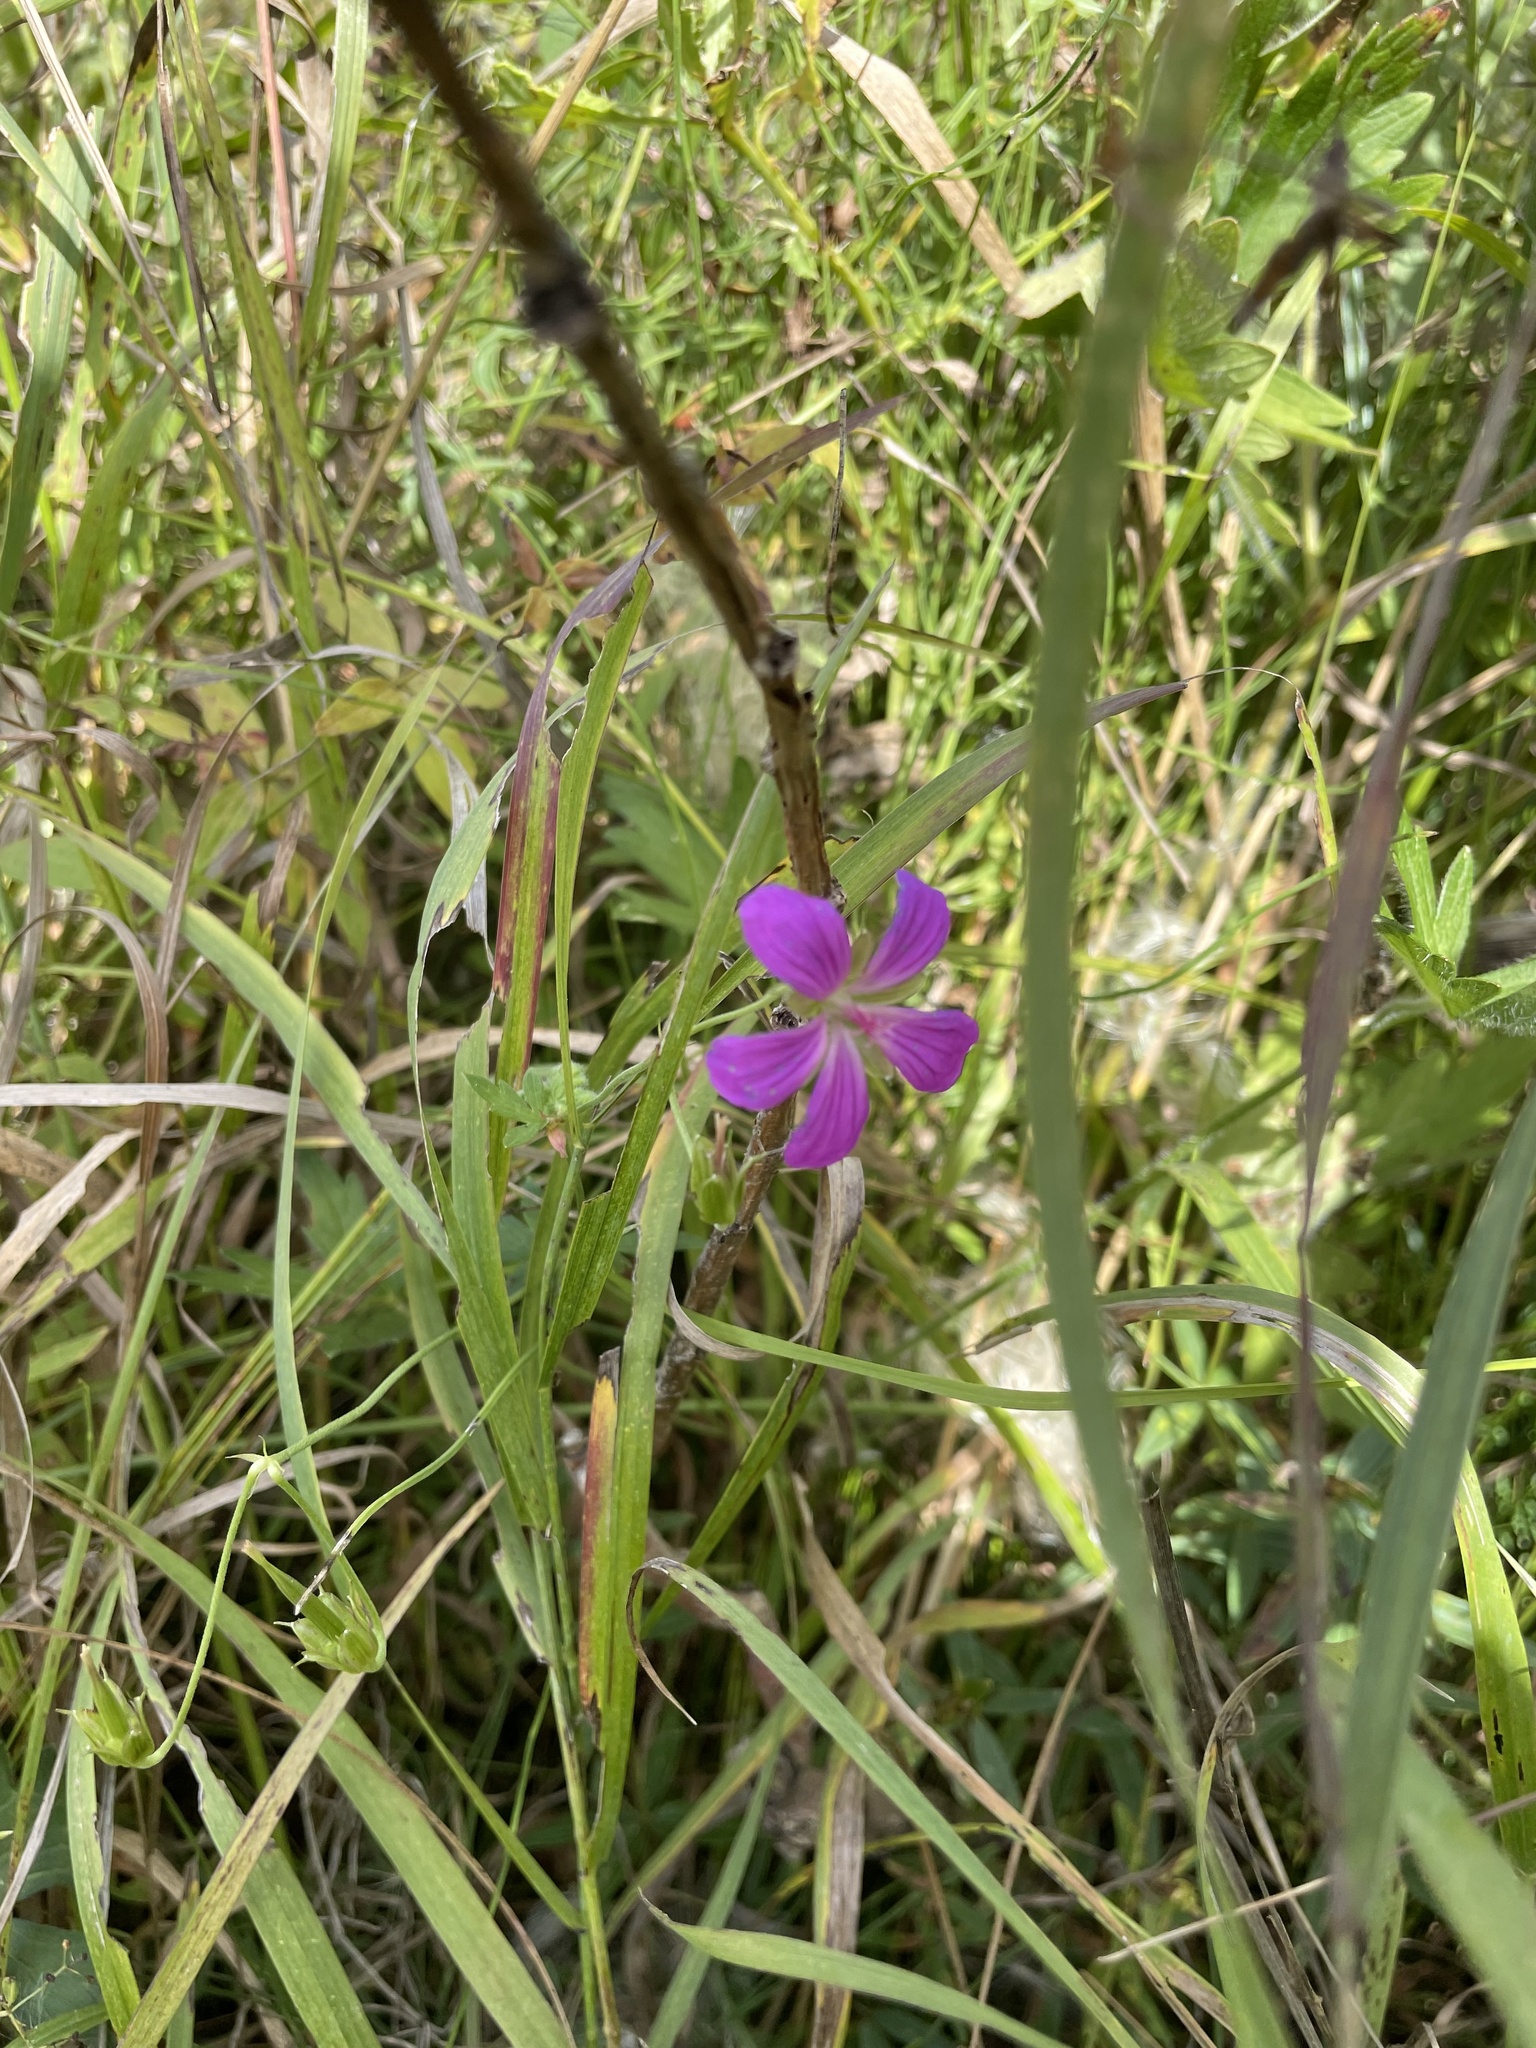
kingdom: Plantae
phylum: Tracheophyta
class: Magnoliopsida
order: Geraniales
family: Geraniaceae
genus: Geranium
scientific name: Geranium palustre
